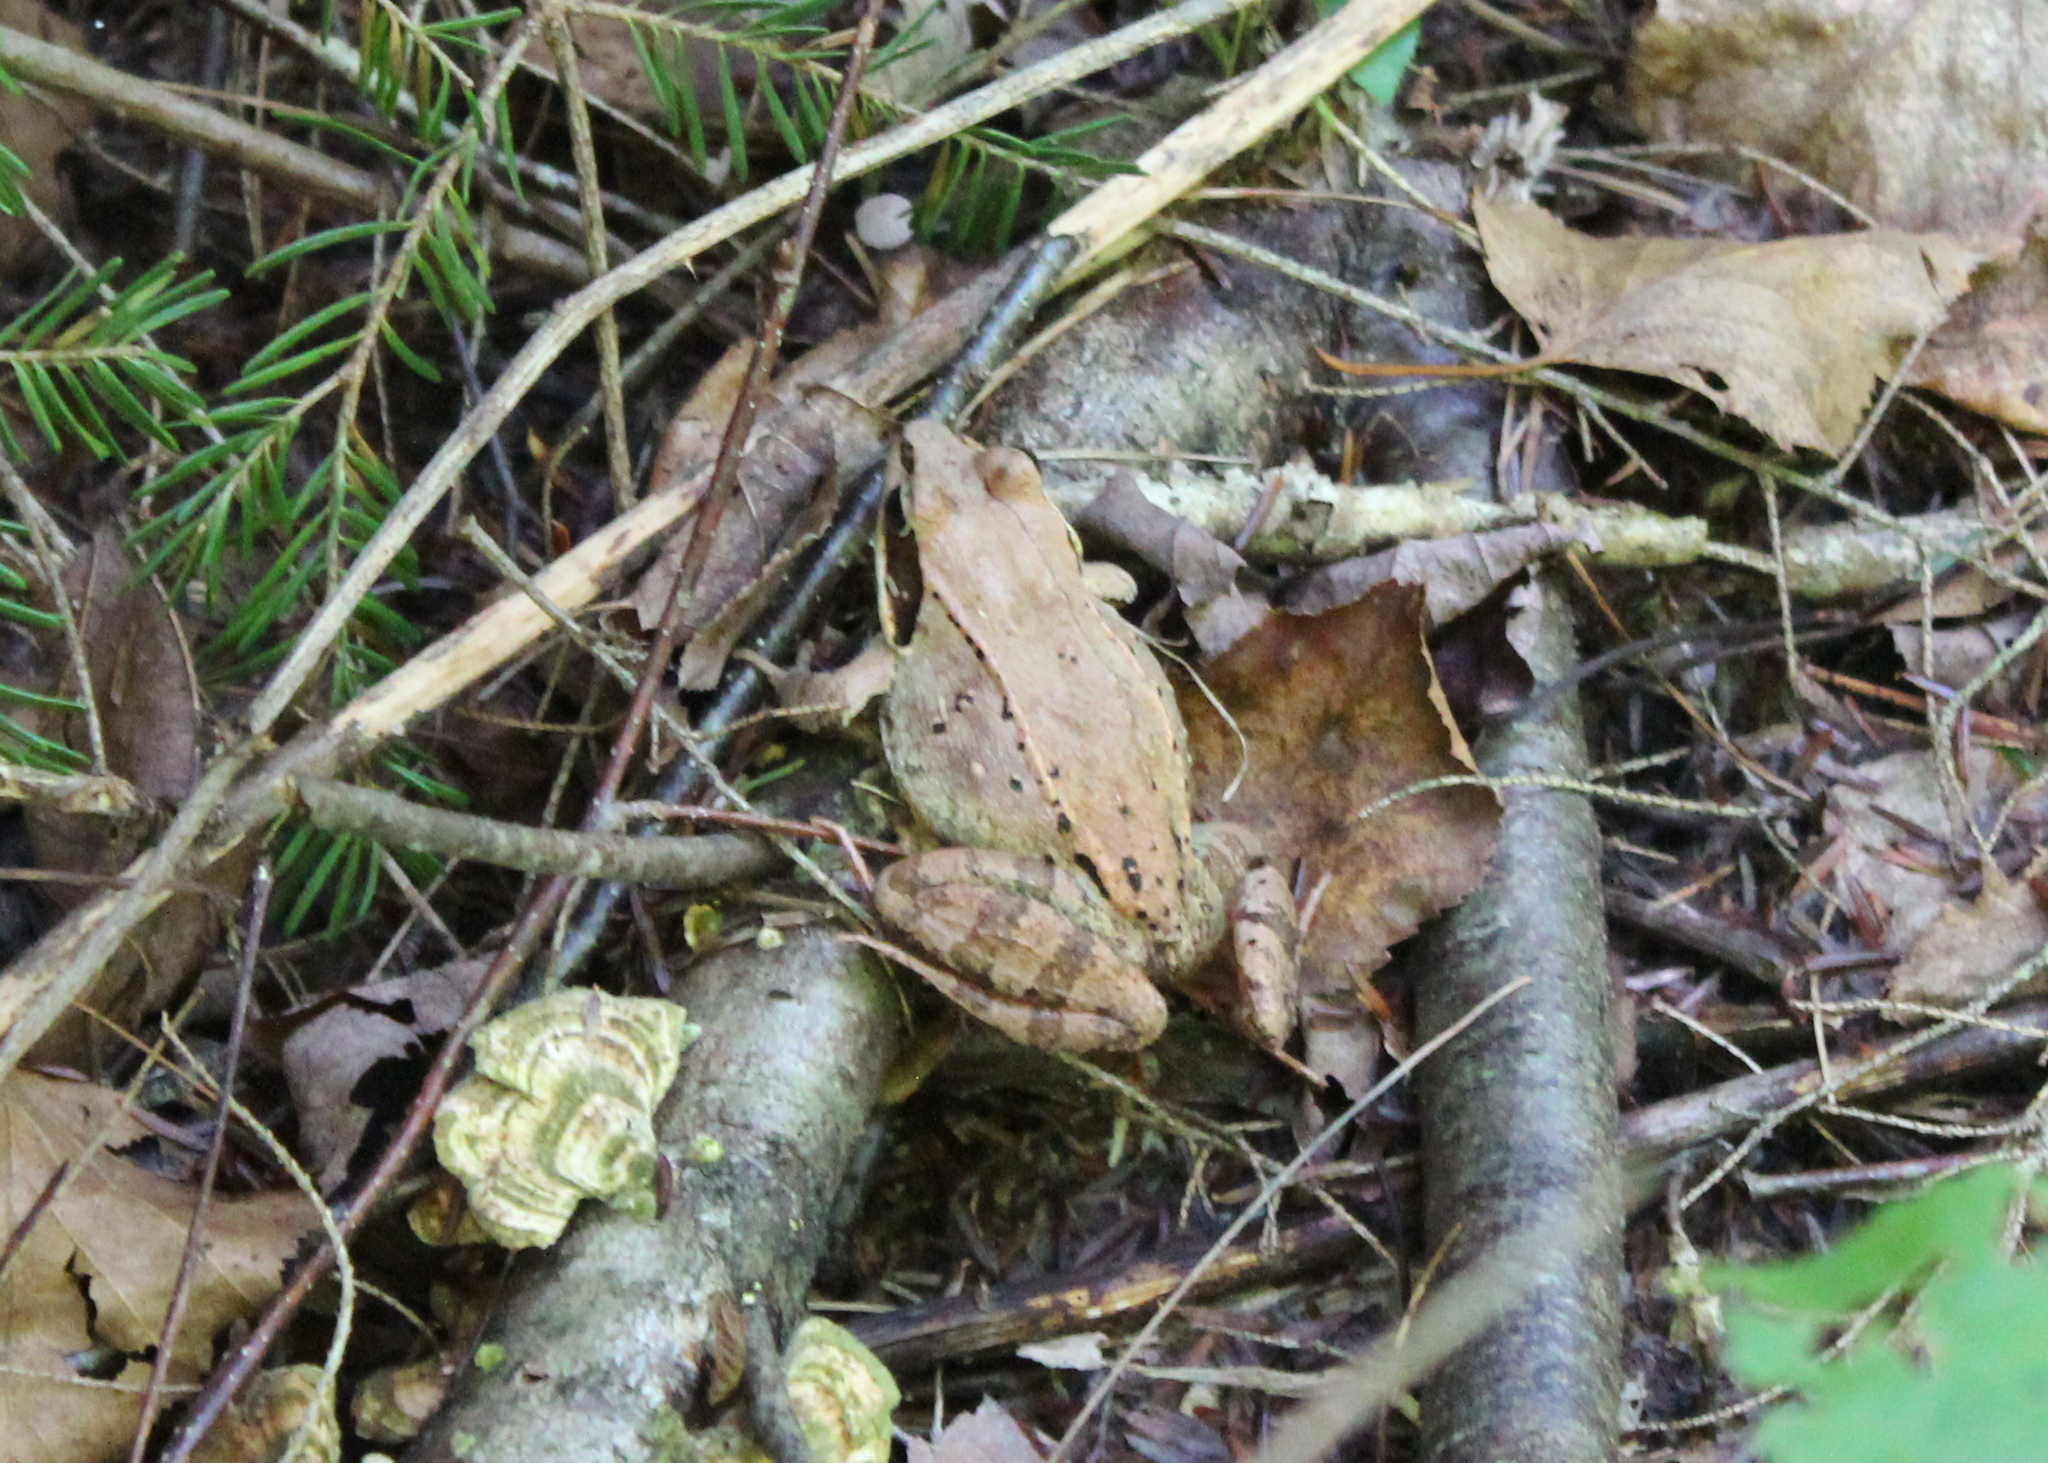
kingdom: Animalia
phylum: Chordata
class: Amphibia
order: Anura
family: Ranidae
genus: Lithobates
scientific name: Lithobates sylvaticus
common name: Wood frog
